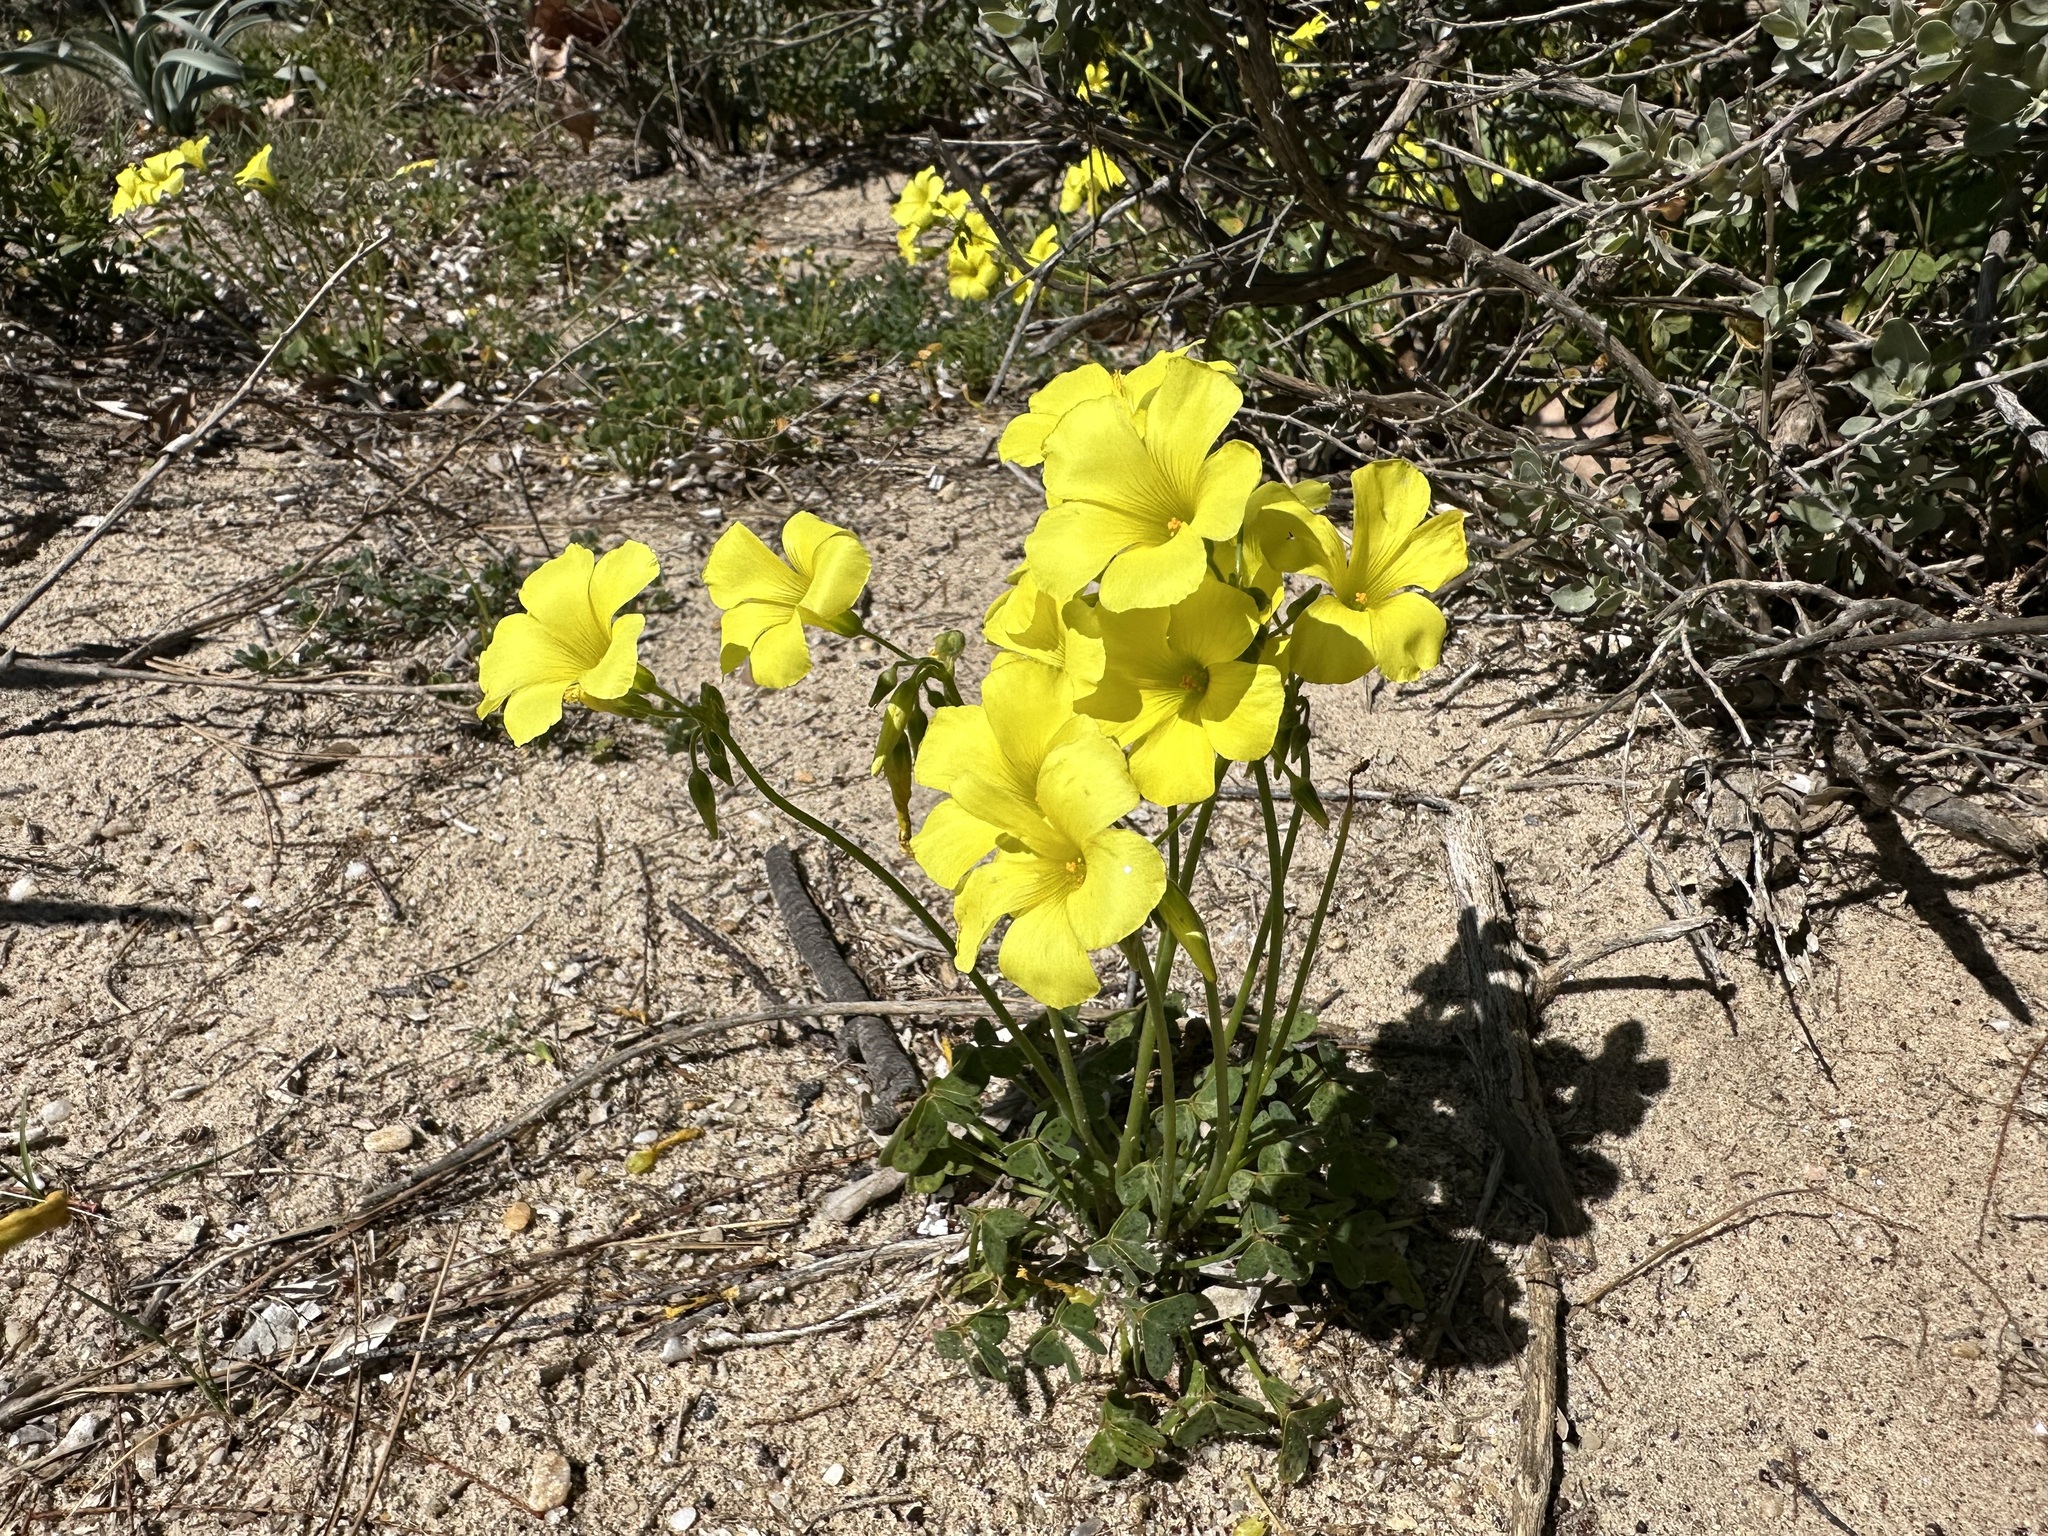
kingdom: Plantae
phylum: Tracheophyta
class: Magnoliopsida
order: Oxalidales
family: Oxalidaceae
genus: Oxalis
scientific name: Oxalis pes-caprae
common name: Bermuda-buttercup
